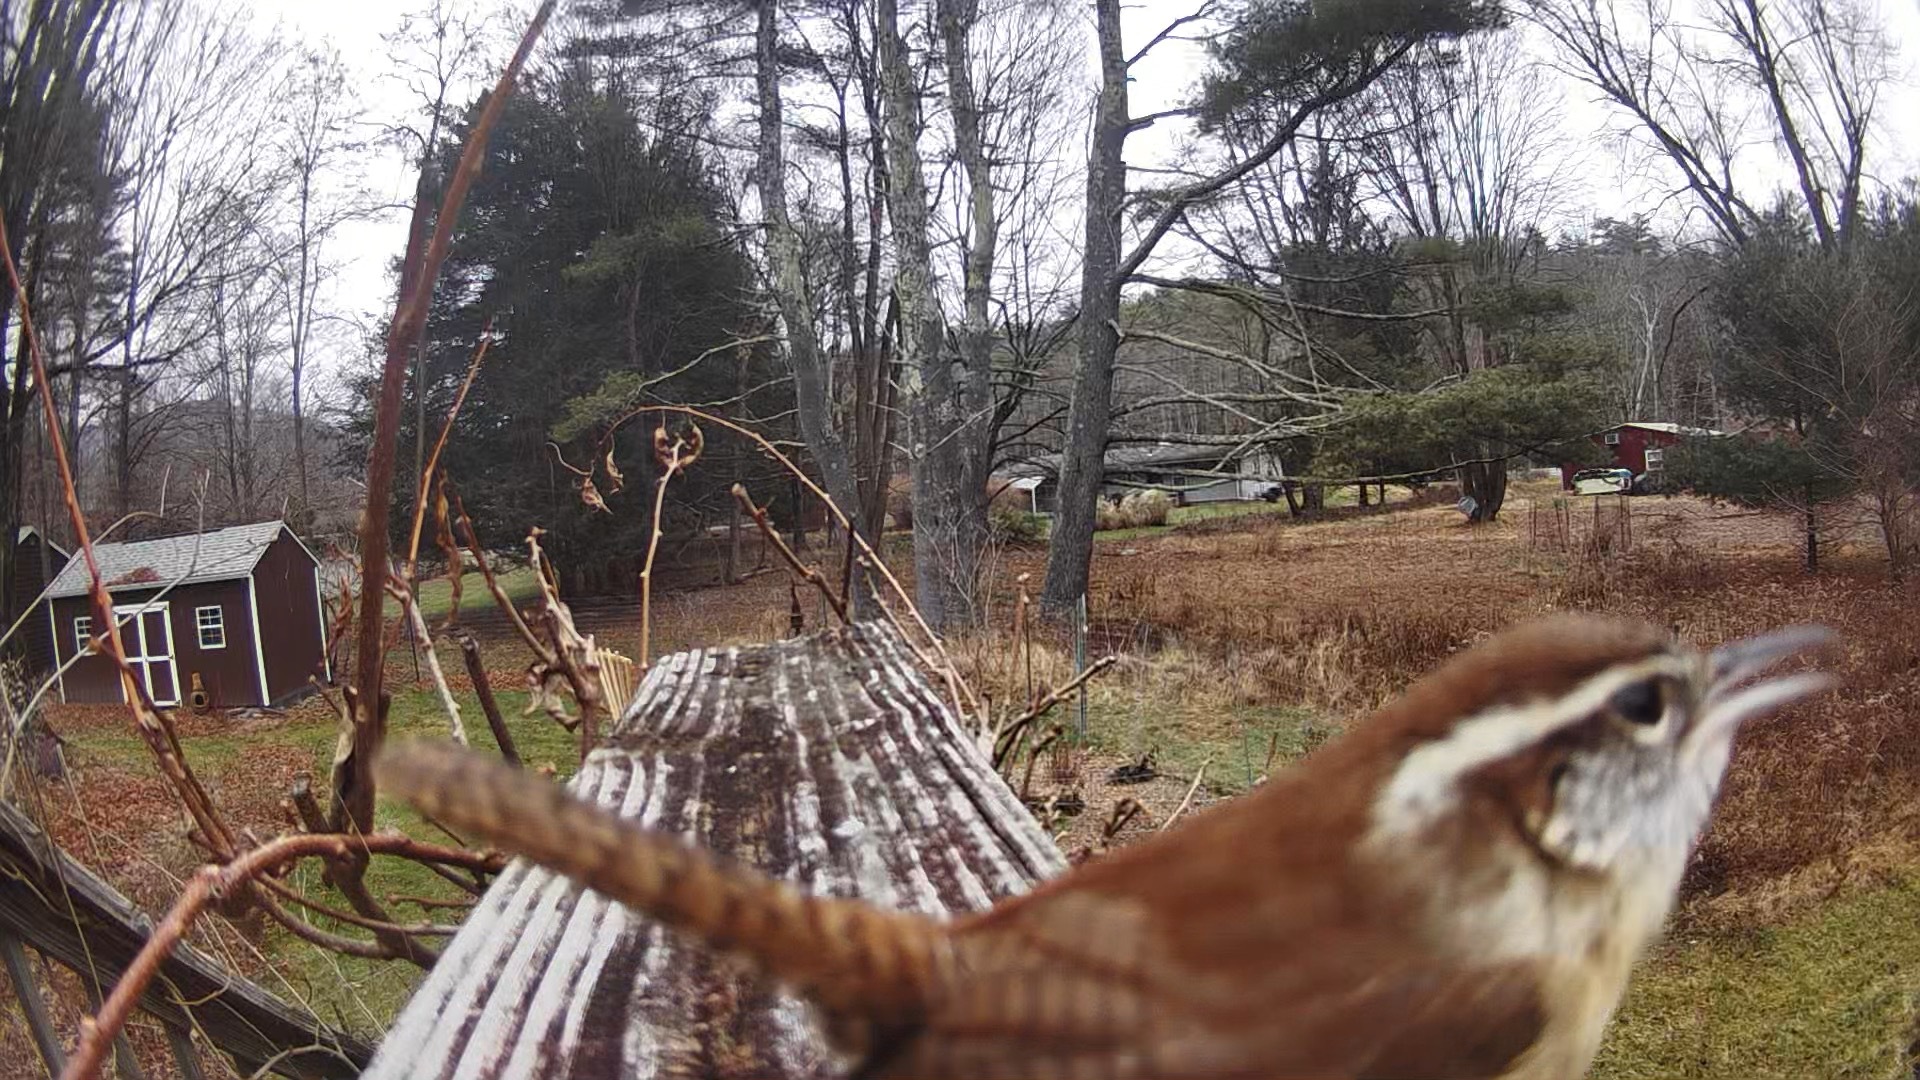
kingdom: Animalia
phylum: Chordata
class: Aves
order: Passeriformes
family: Troglodytidae
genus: Thryothorus
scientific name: Thryothorus ludovicianus
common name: Carolina wren
